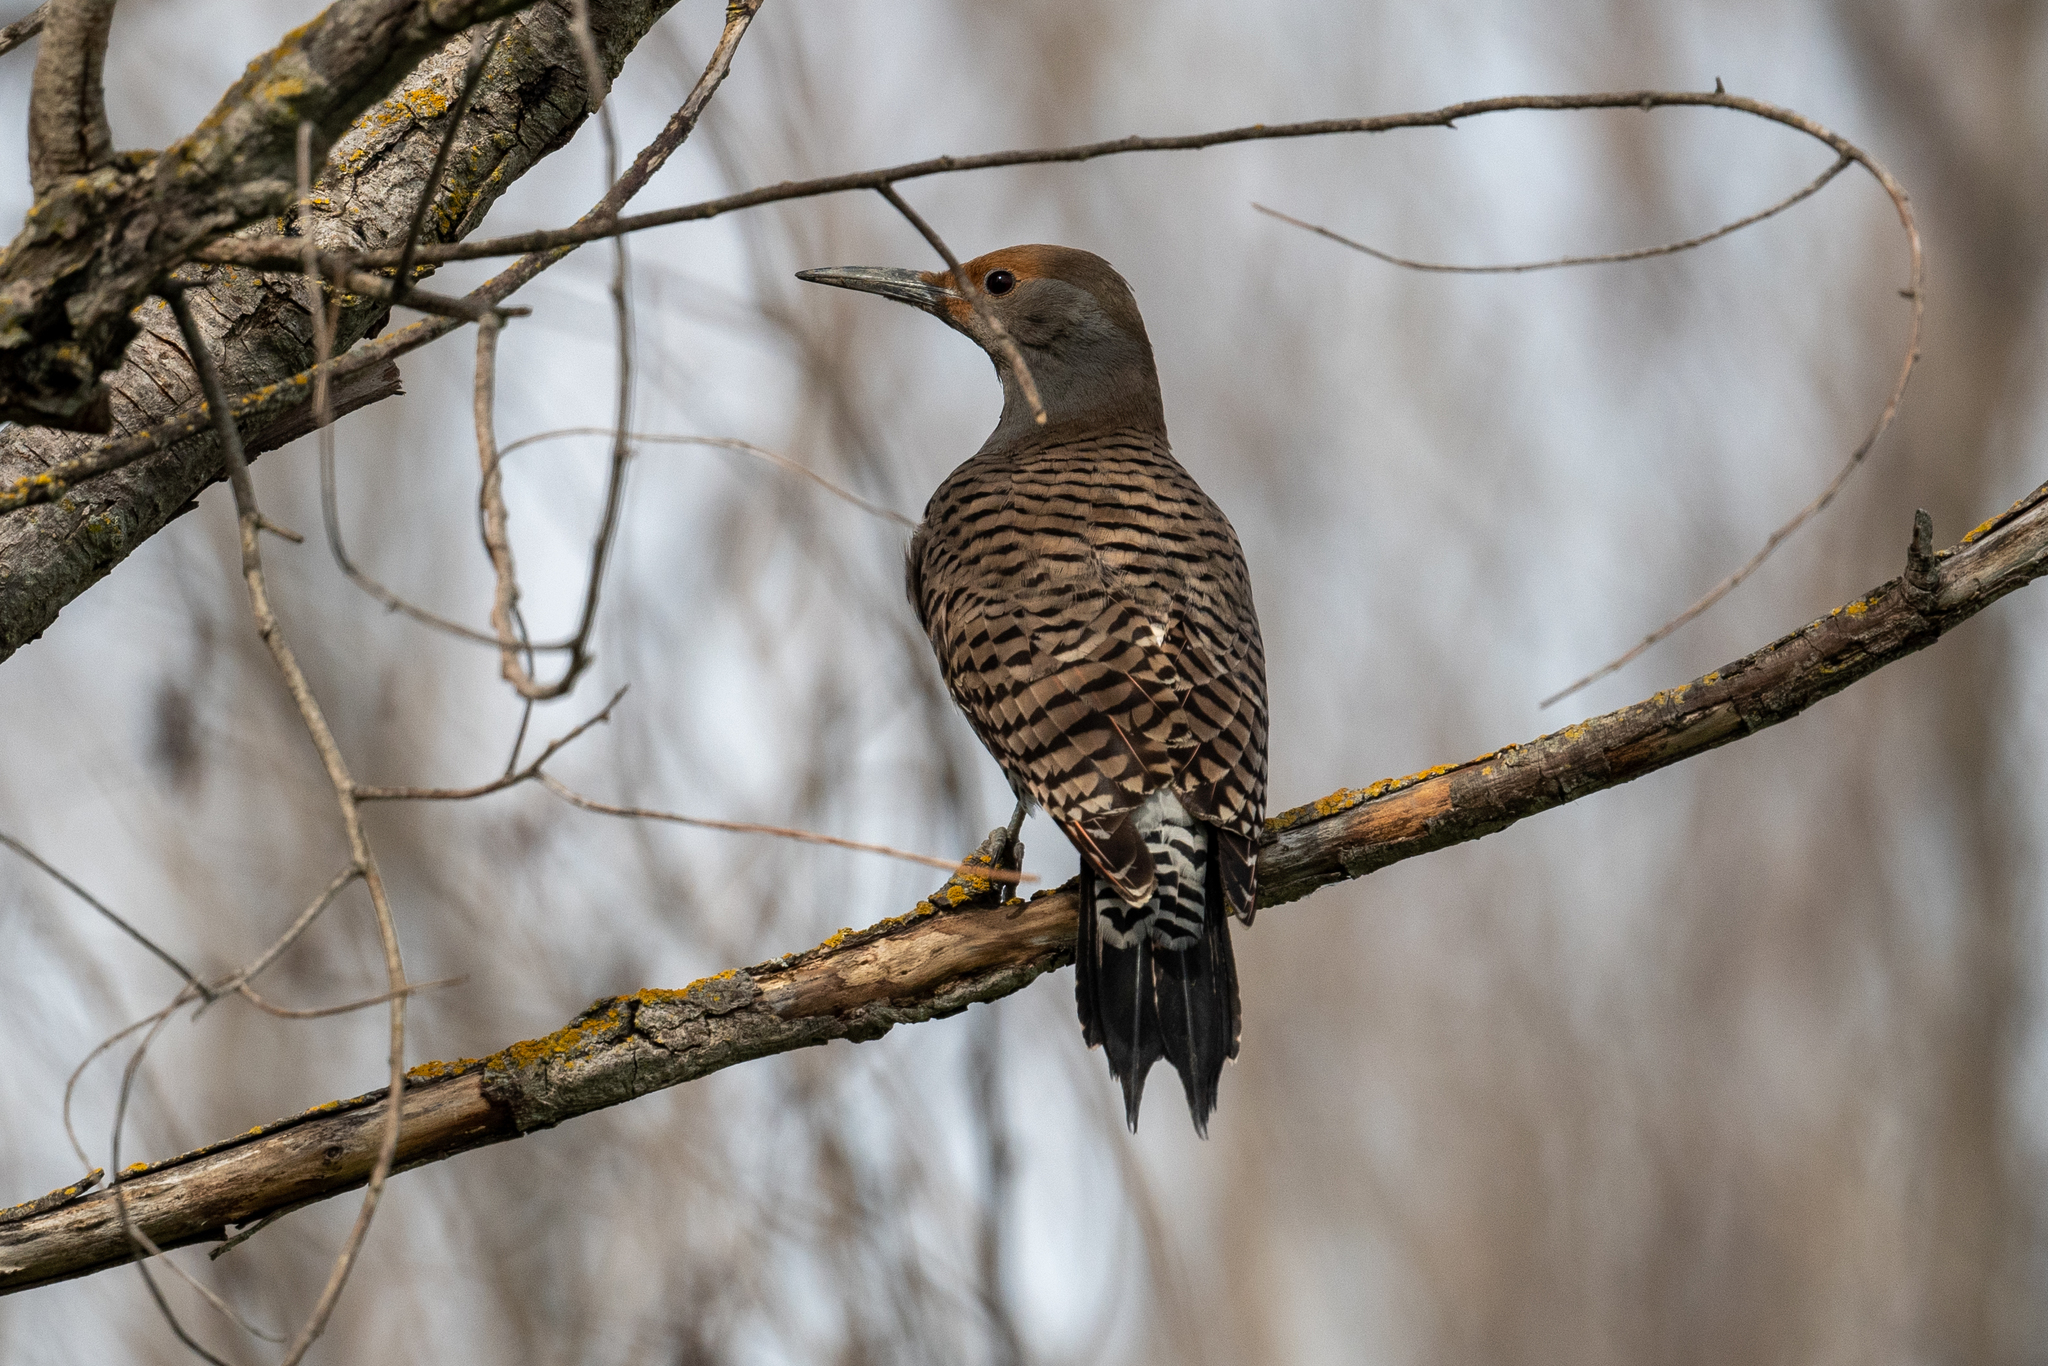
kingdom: Animalia
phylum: Chordata
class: Aves
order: Piciformes
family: Picidae
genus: Colaptes
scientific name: Colaptes auratus
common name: Northern flicker
